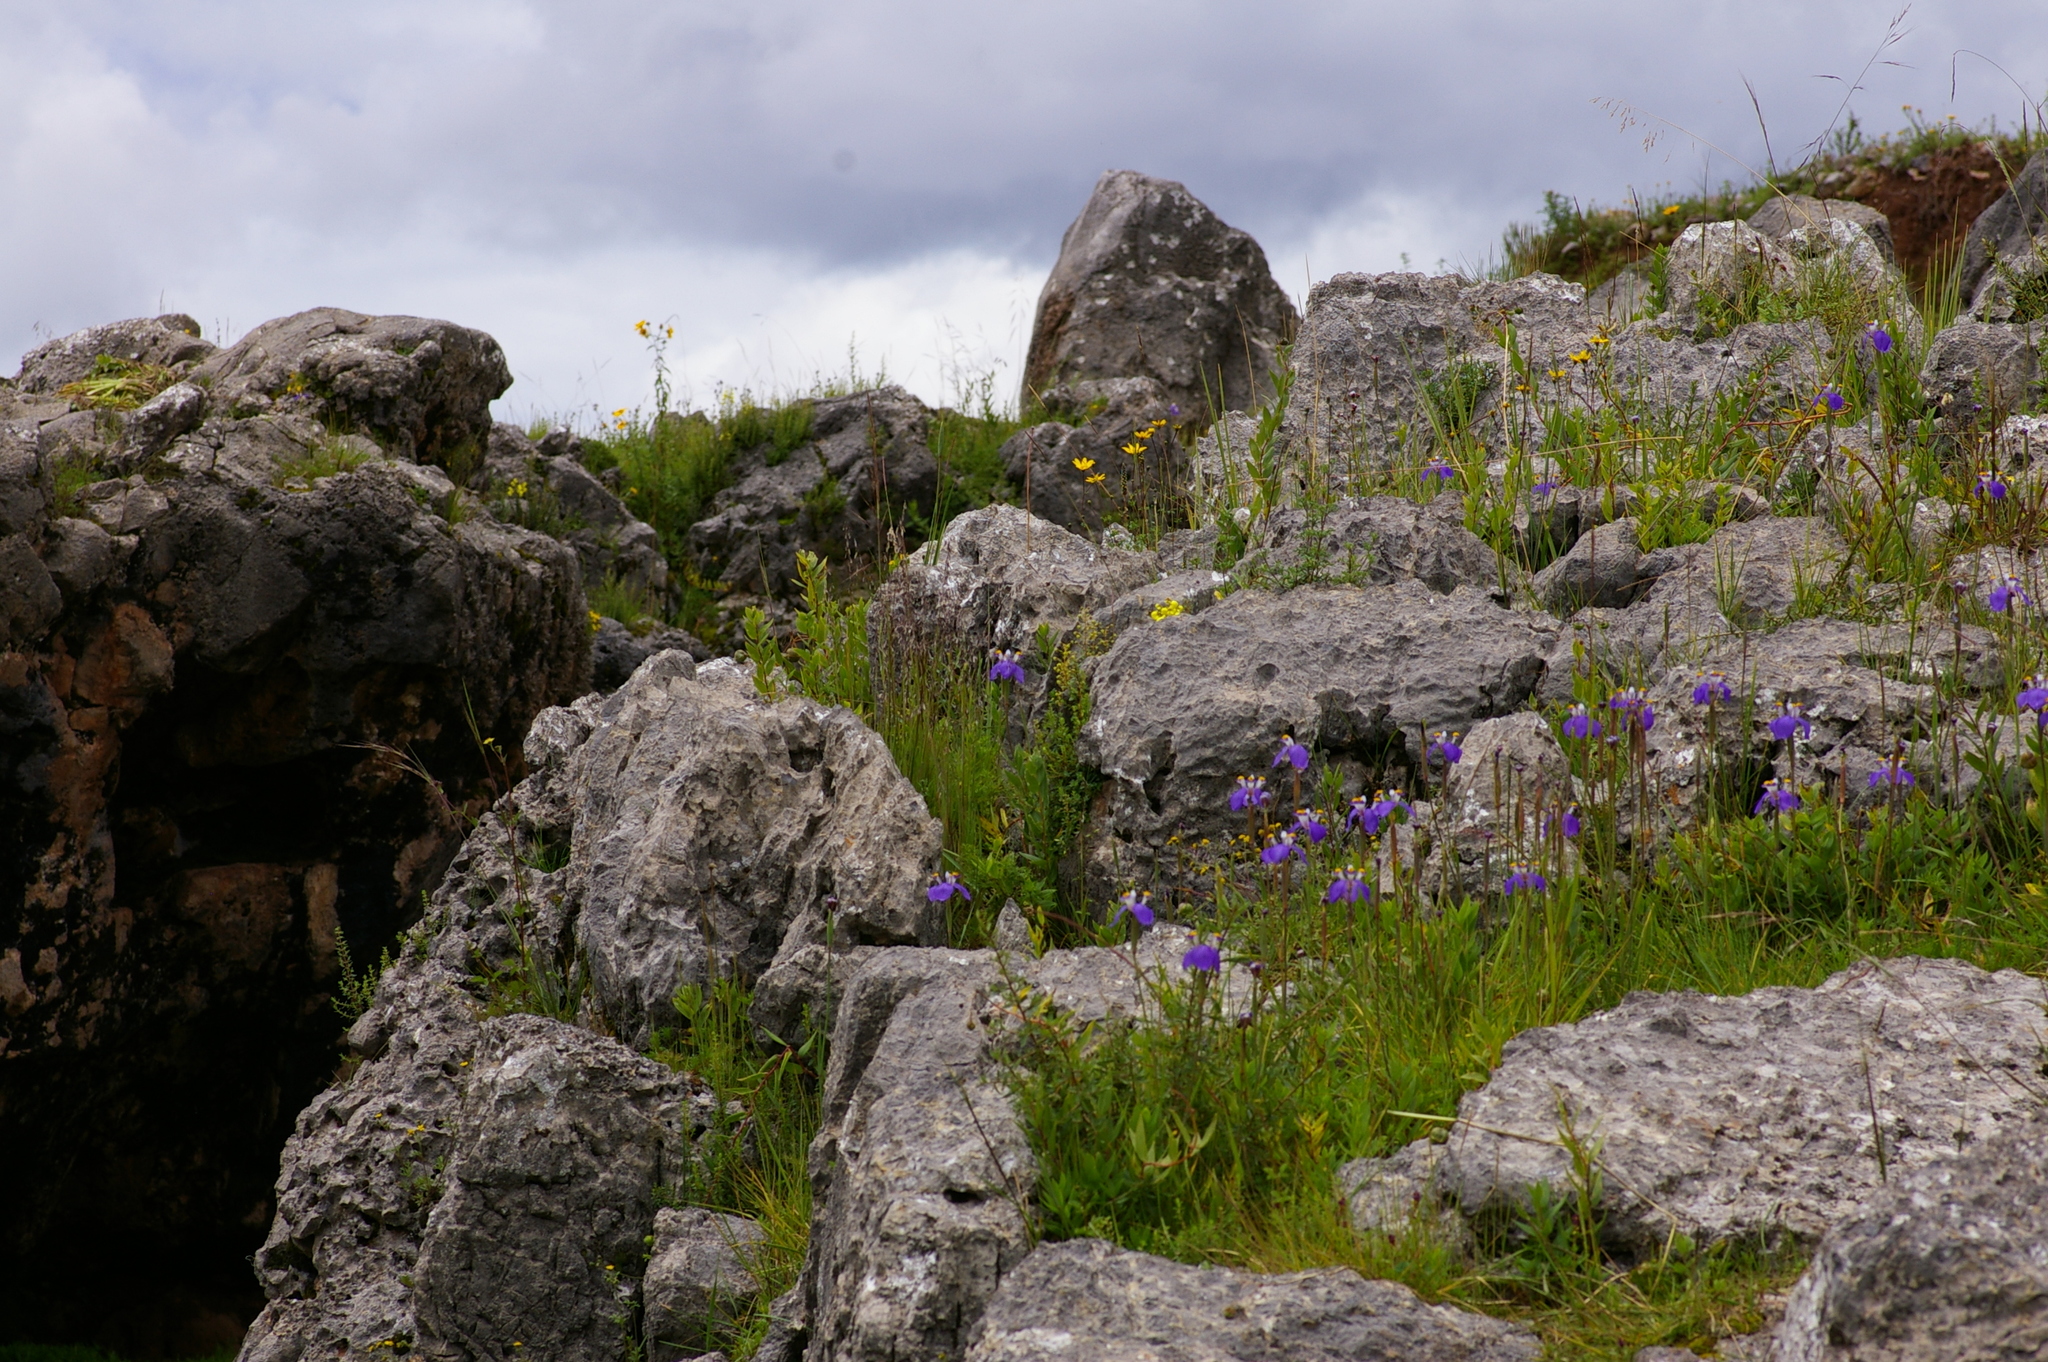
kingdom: Plantae
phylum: Tracheophyta
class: Liliopsida
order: Asparagales
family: Iridaceae
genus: Hesperoxiphion
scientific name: Hesperoxiphion herrerae
